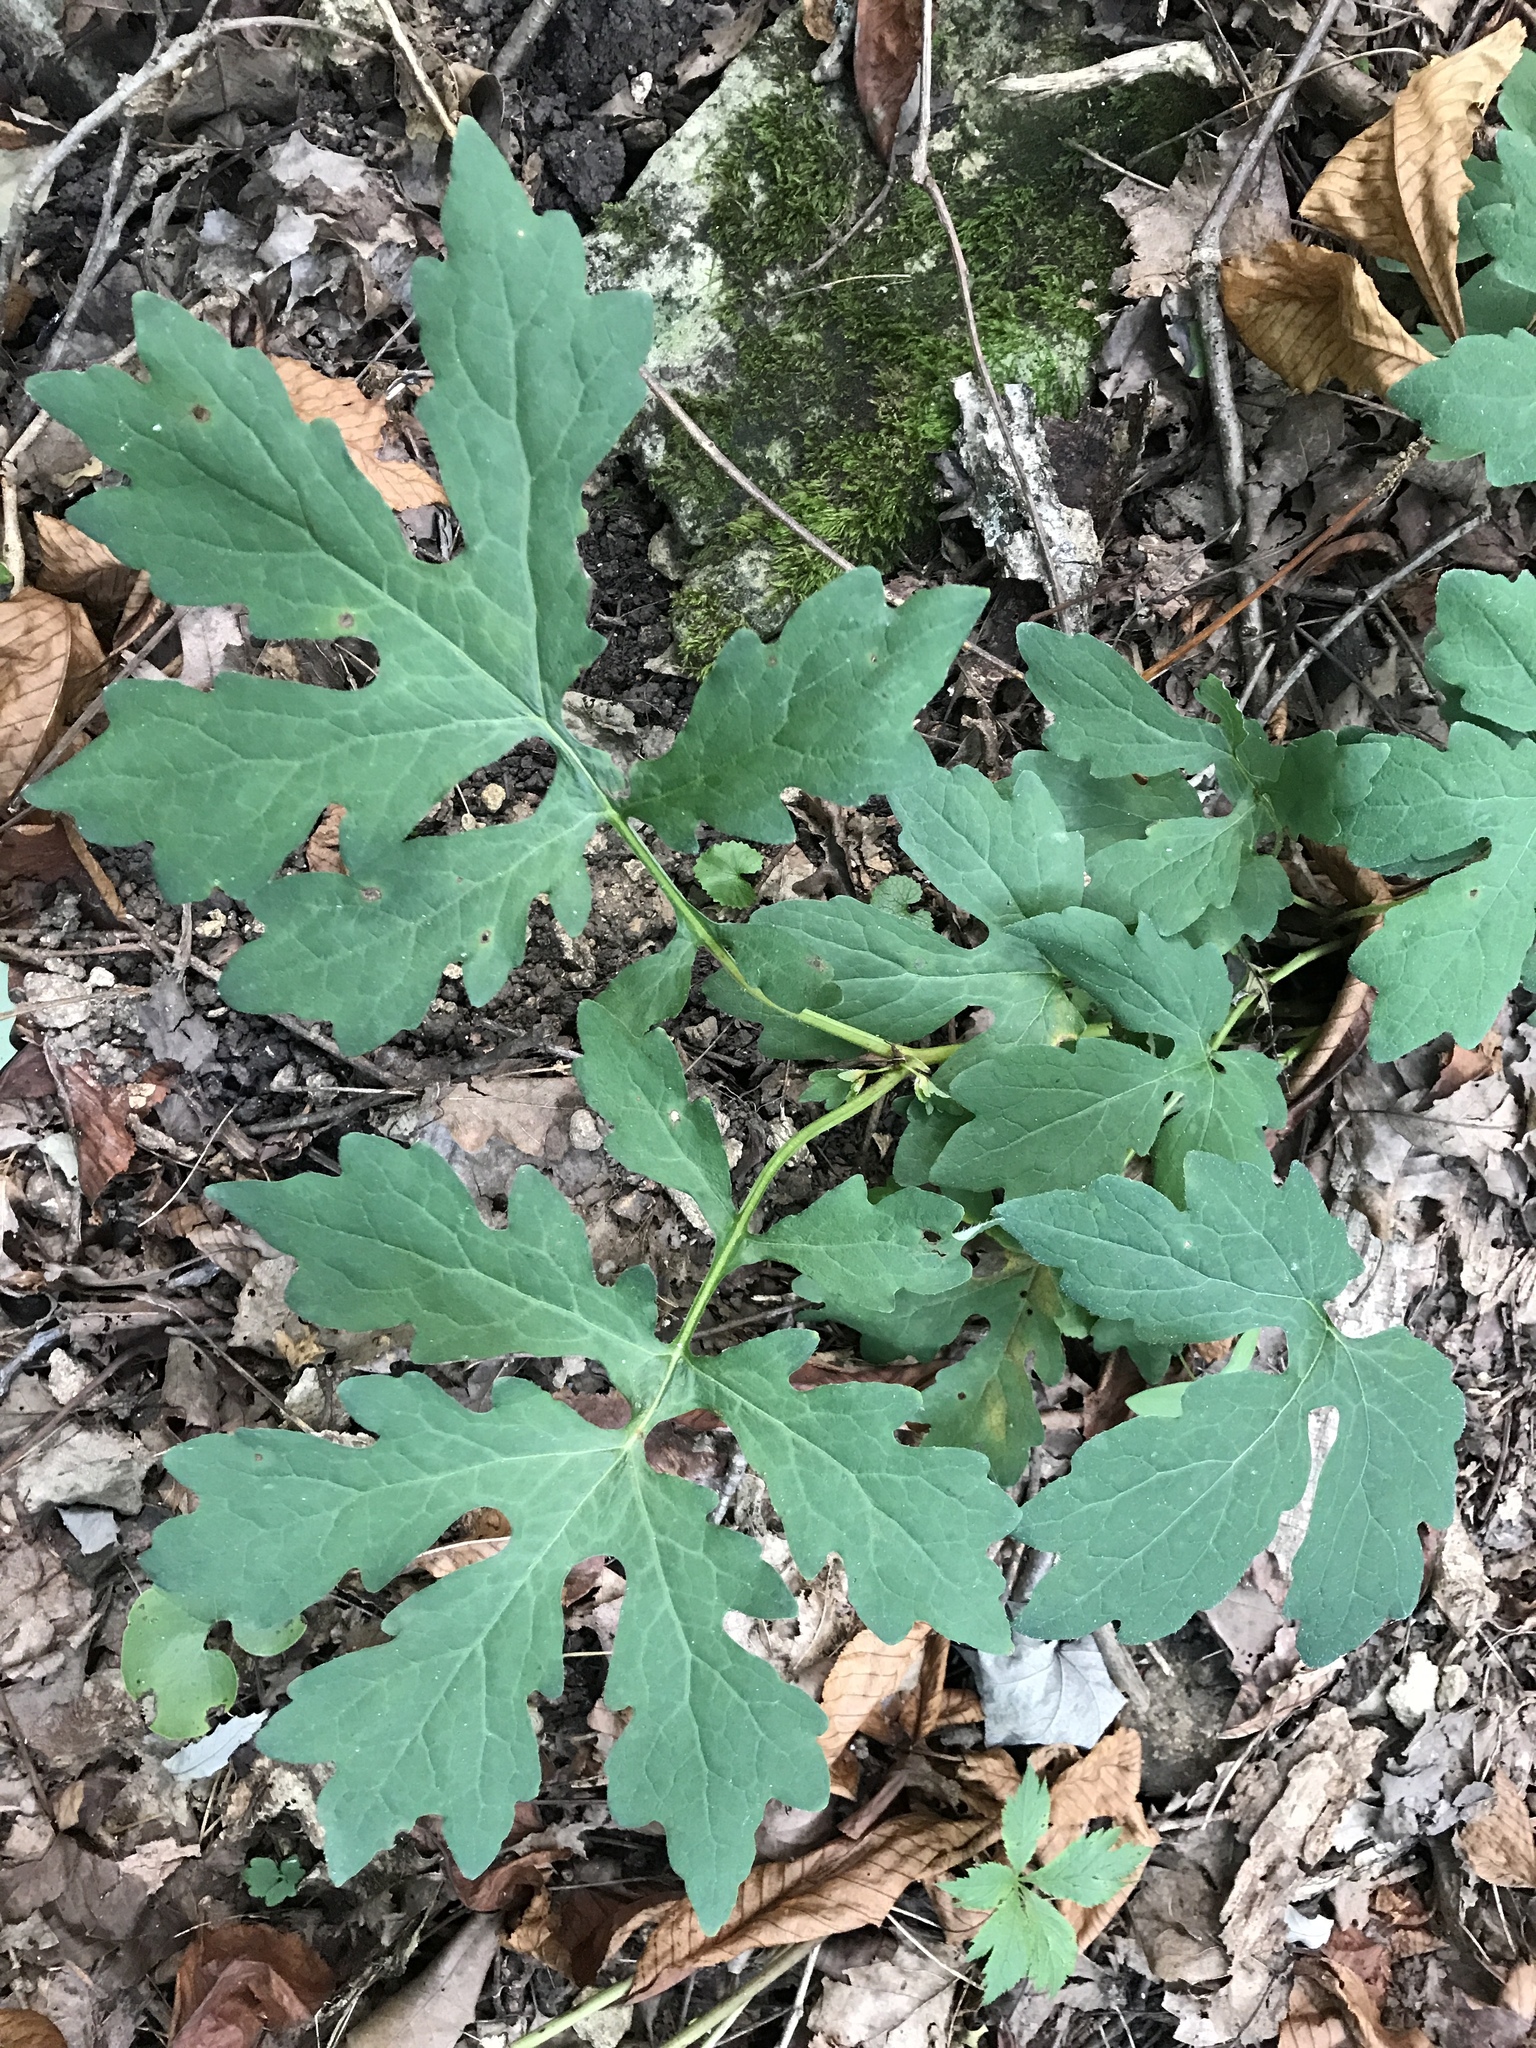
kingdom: Plantae
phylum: Tracheophyta
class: Magnoliopsida
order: Ranunculales
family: Papaveraceae
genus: Stylophorum
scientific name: Stylophorum diphyllum
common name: Celandine poppy
